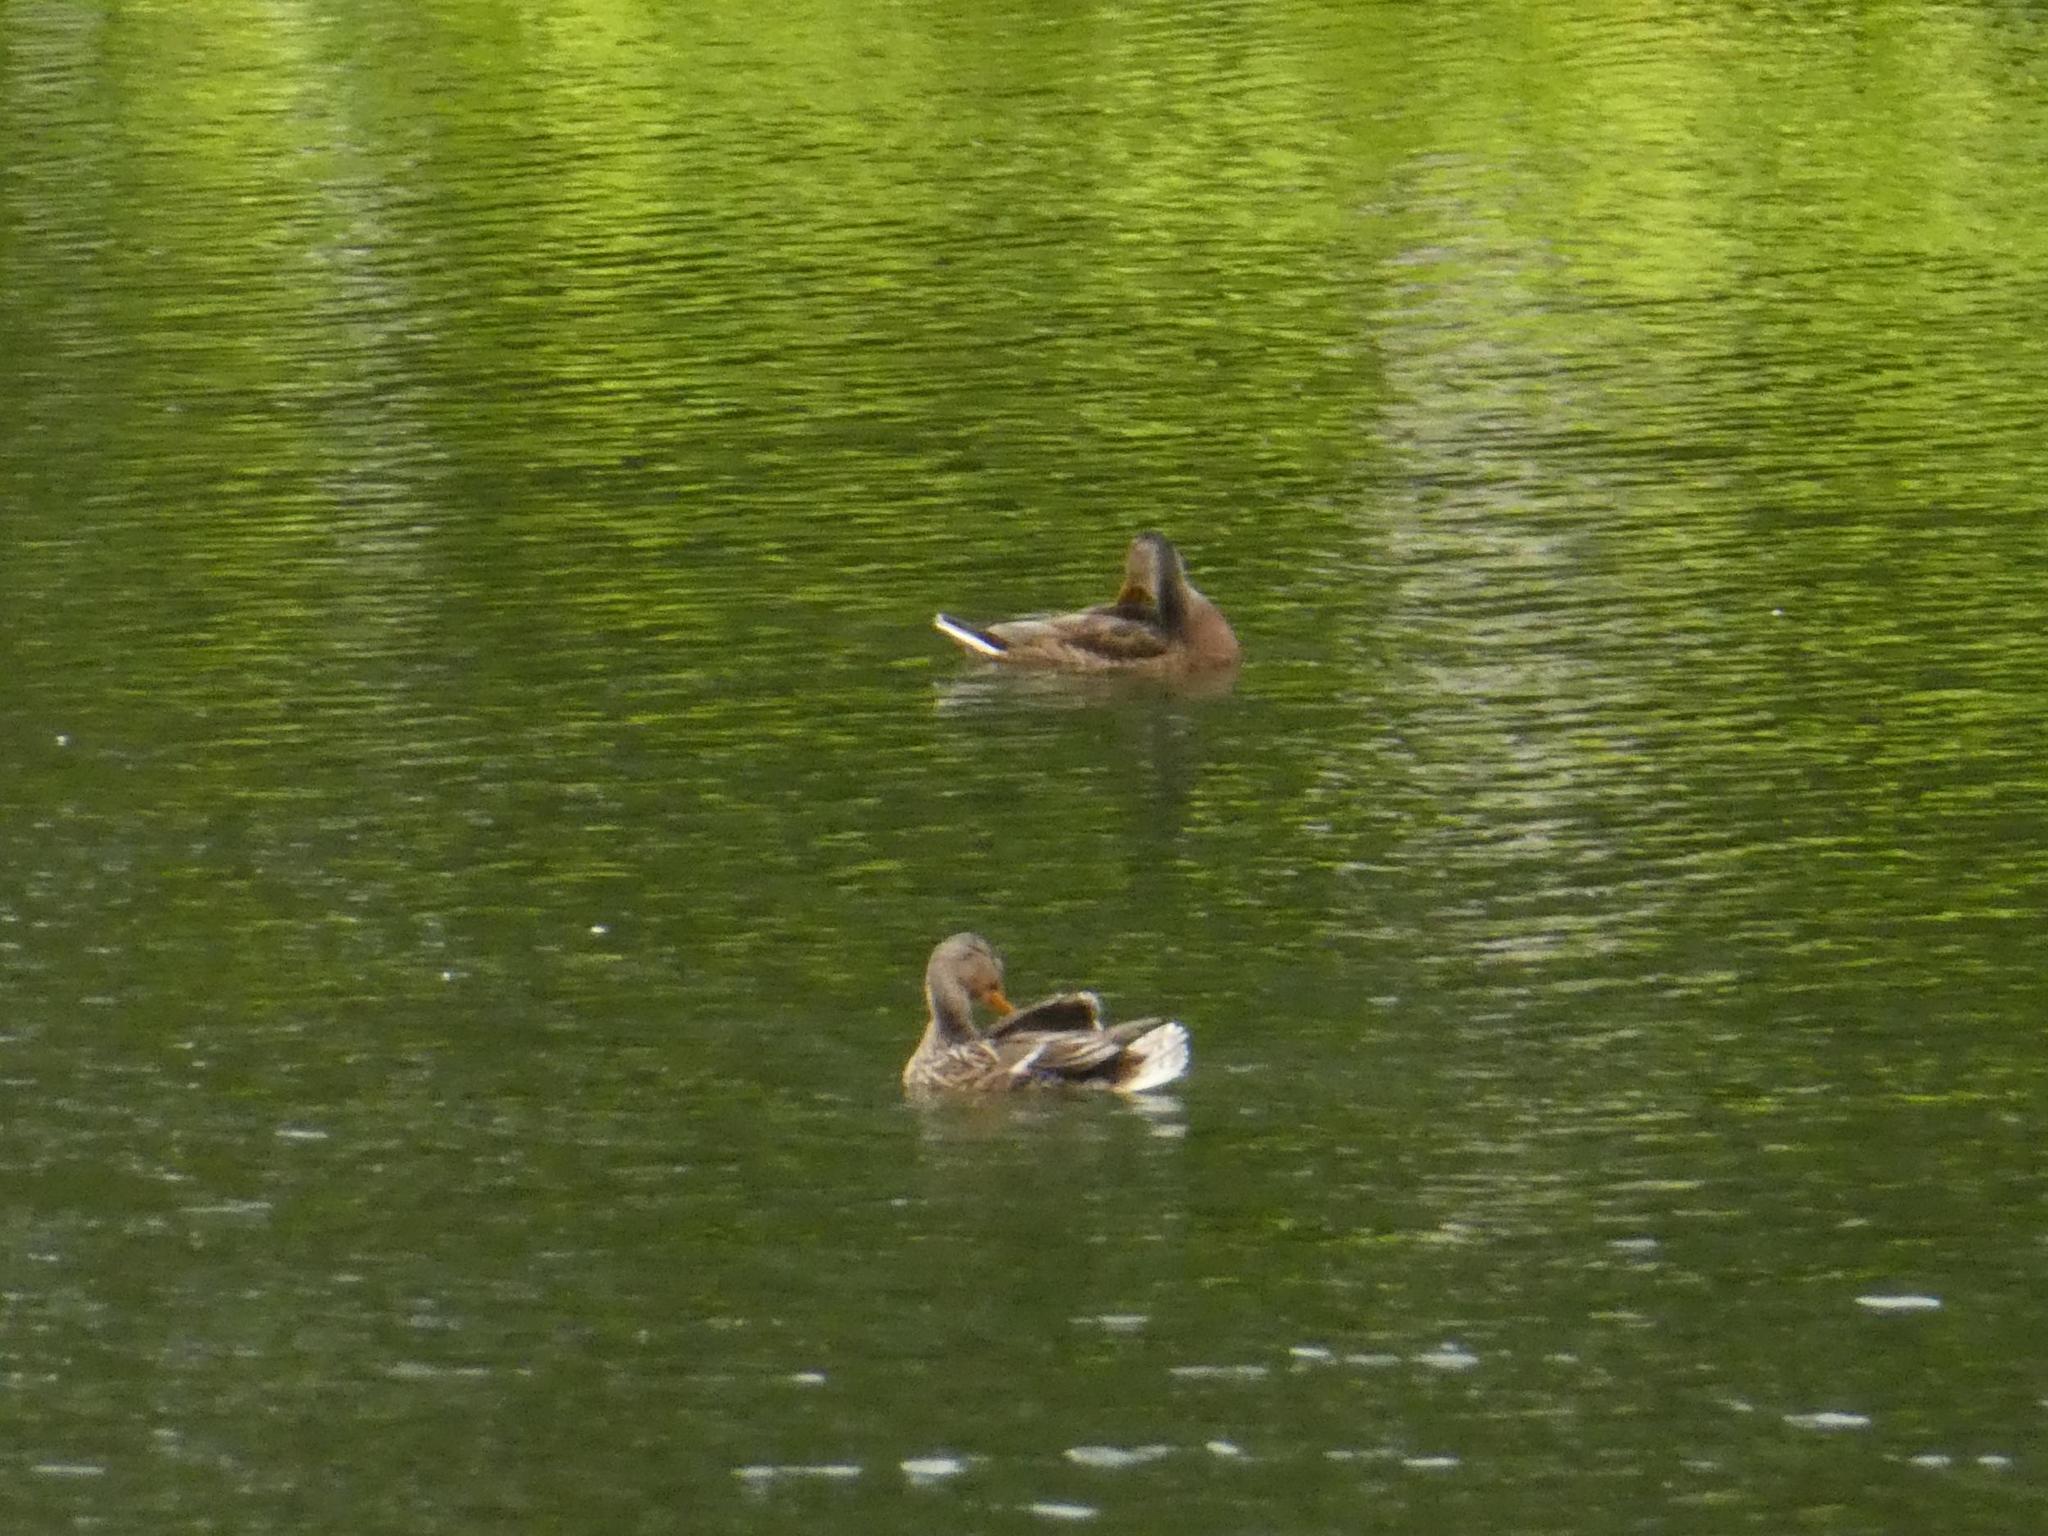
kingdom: Animalia
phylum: Chordata
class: Aves
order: Anseriformes
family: Anatidae
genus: Anas
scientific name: Anas platyrhynchos
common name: Mallard
